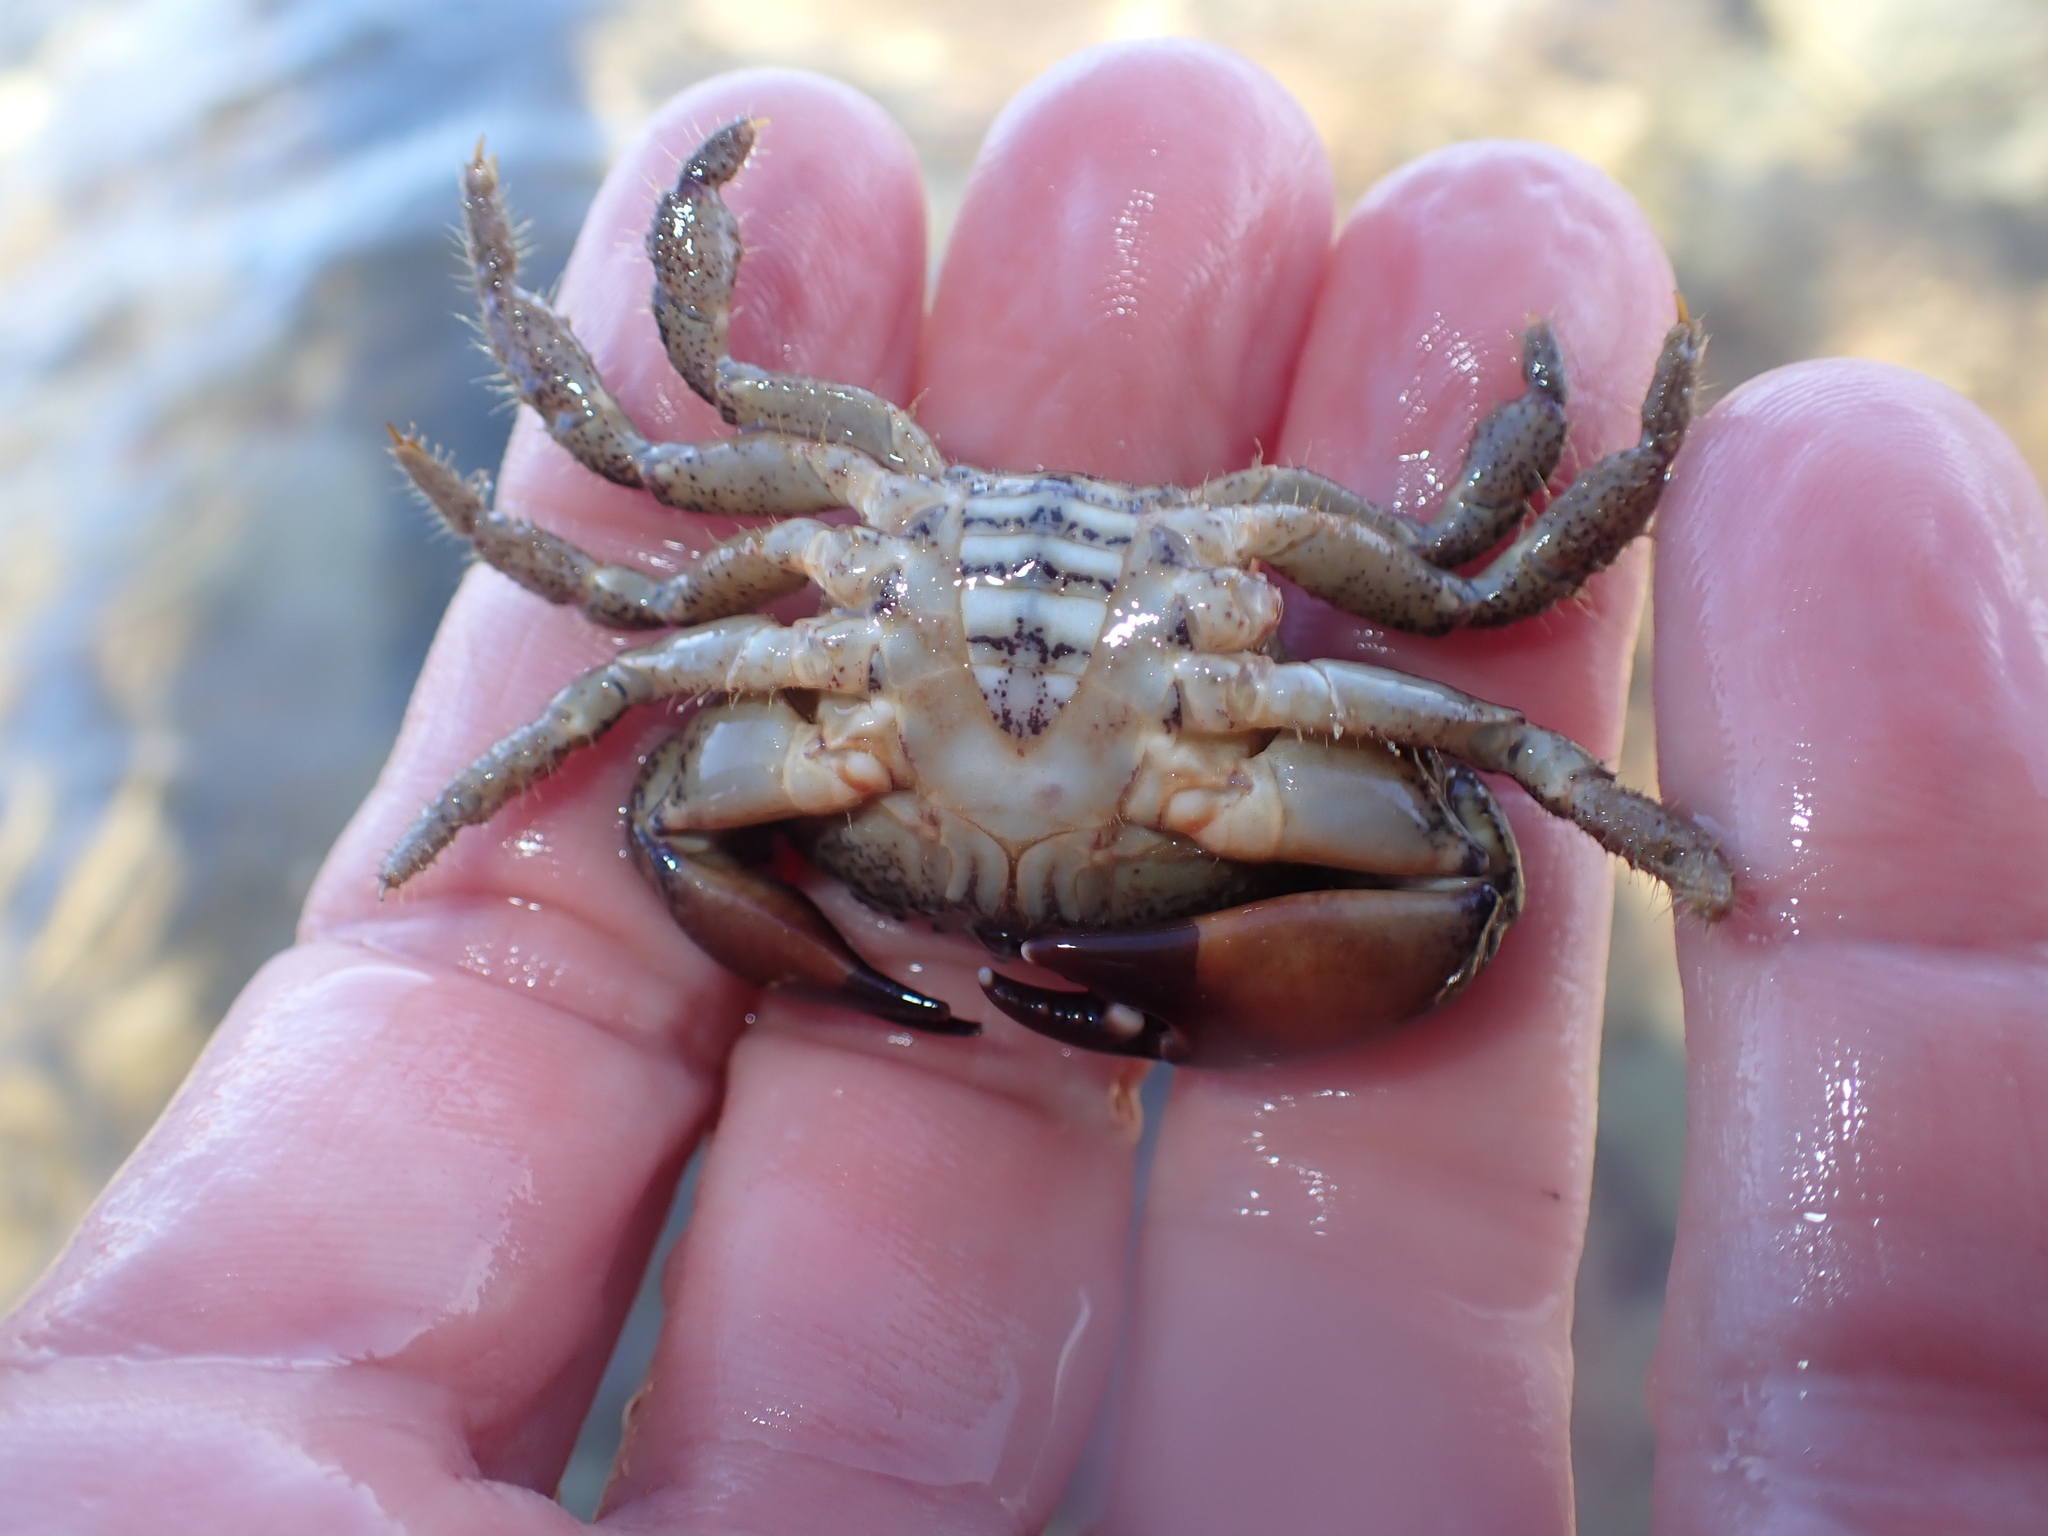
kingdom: Animalia
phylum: Arthropoda
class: Malacostraca
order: Decapoda
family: Oziidae
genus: Ozius
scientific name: Ozius truncatus
